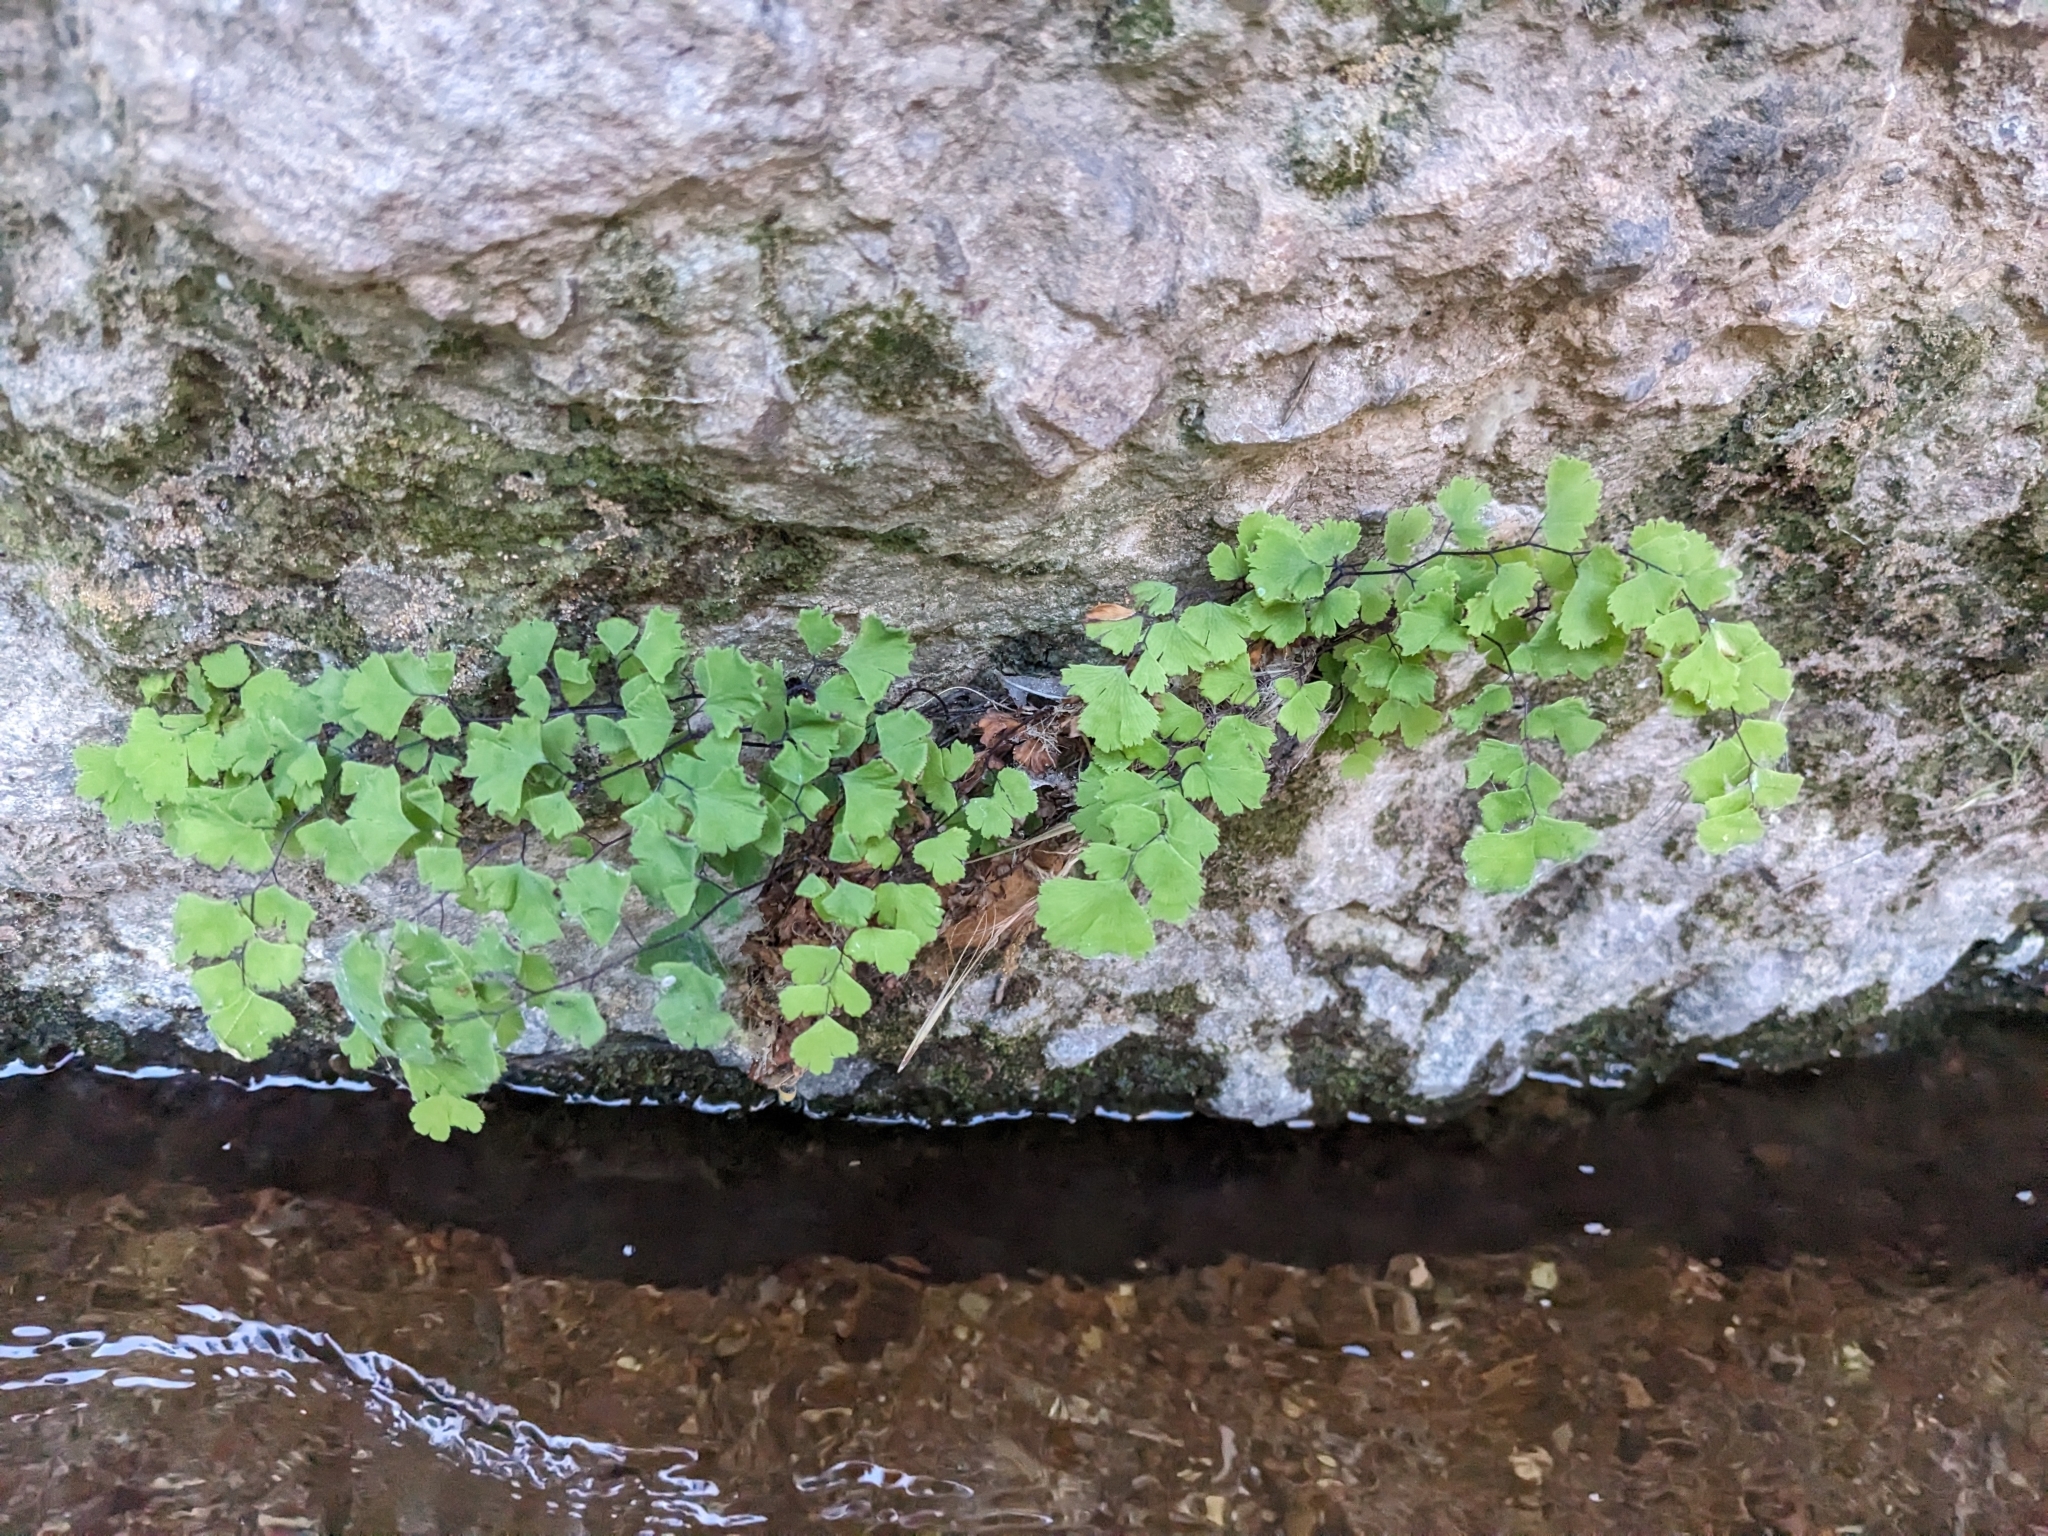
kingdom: Plantae
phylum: Tracheophyta
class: Polypodiopsida
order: Polypodiales
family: Pteridaceae
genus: Adiantum
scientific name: Adiantum capillus-veneris
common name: Maidenhair fern
